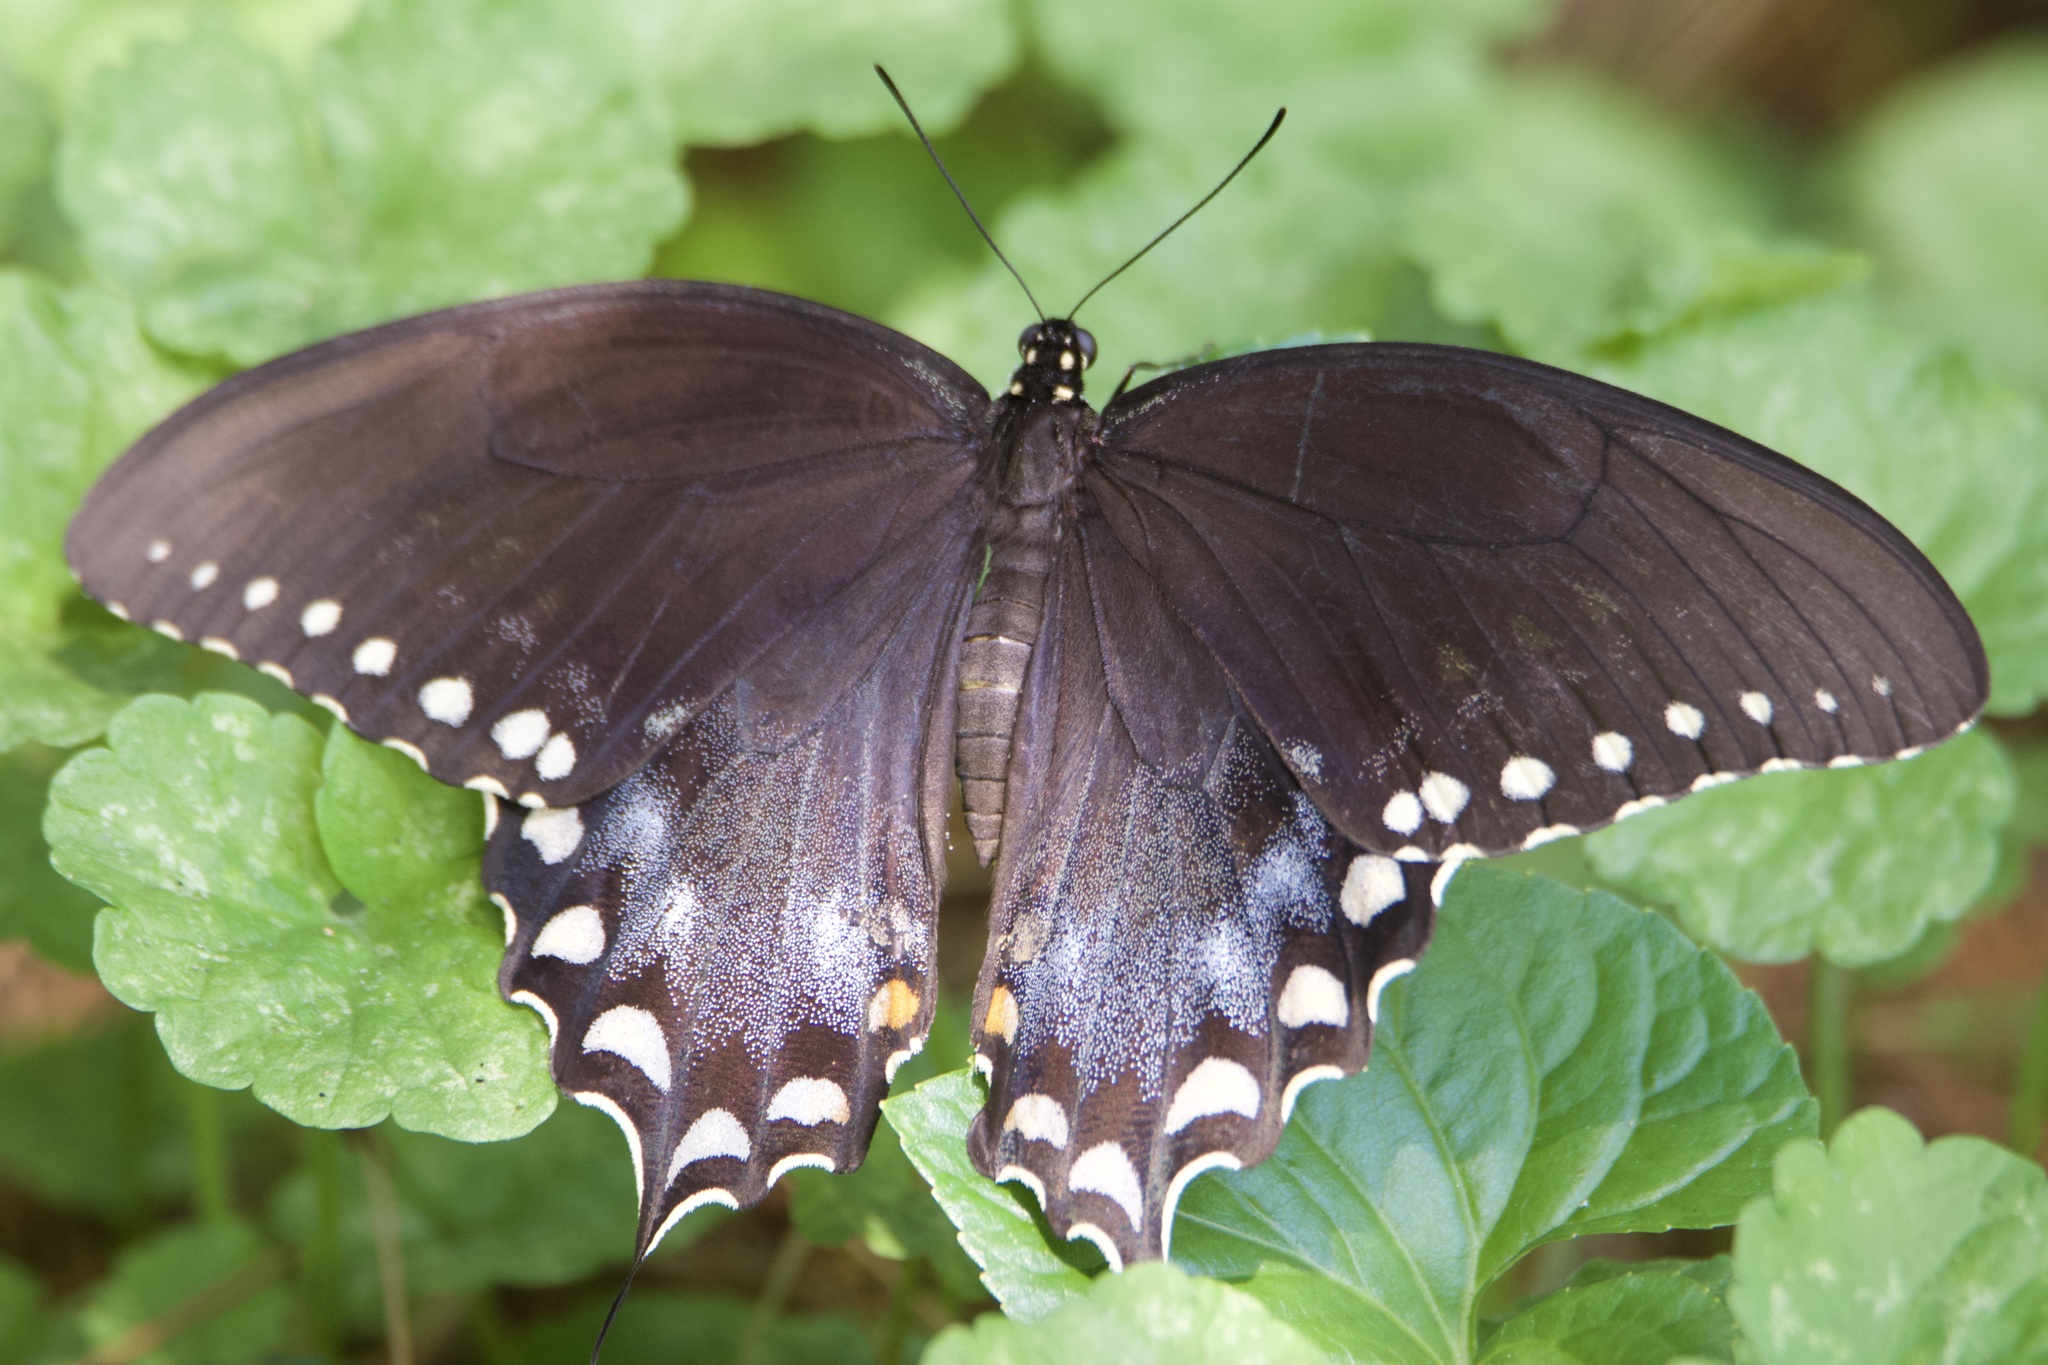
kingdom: Animalia
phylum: Arthropoda
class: Insecta
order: Lepidoptera
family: Papilionidae
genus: Papilio
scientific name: Papilio troilus
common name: Spicebush swallowtail
